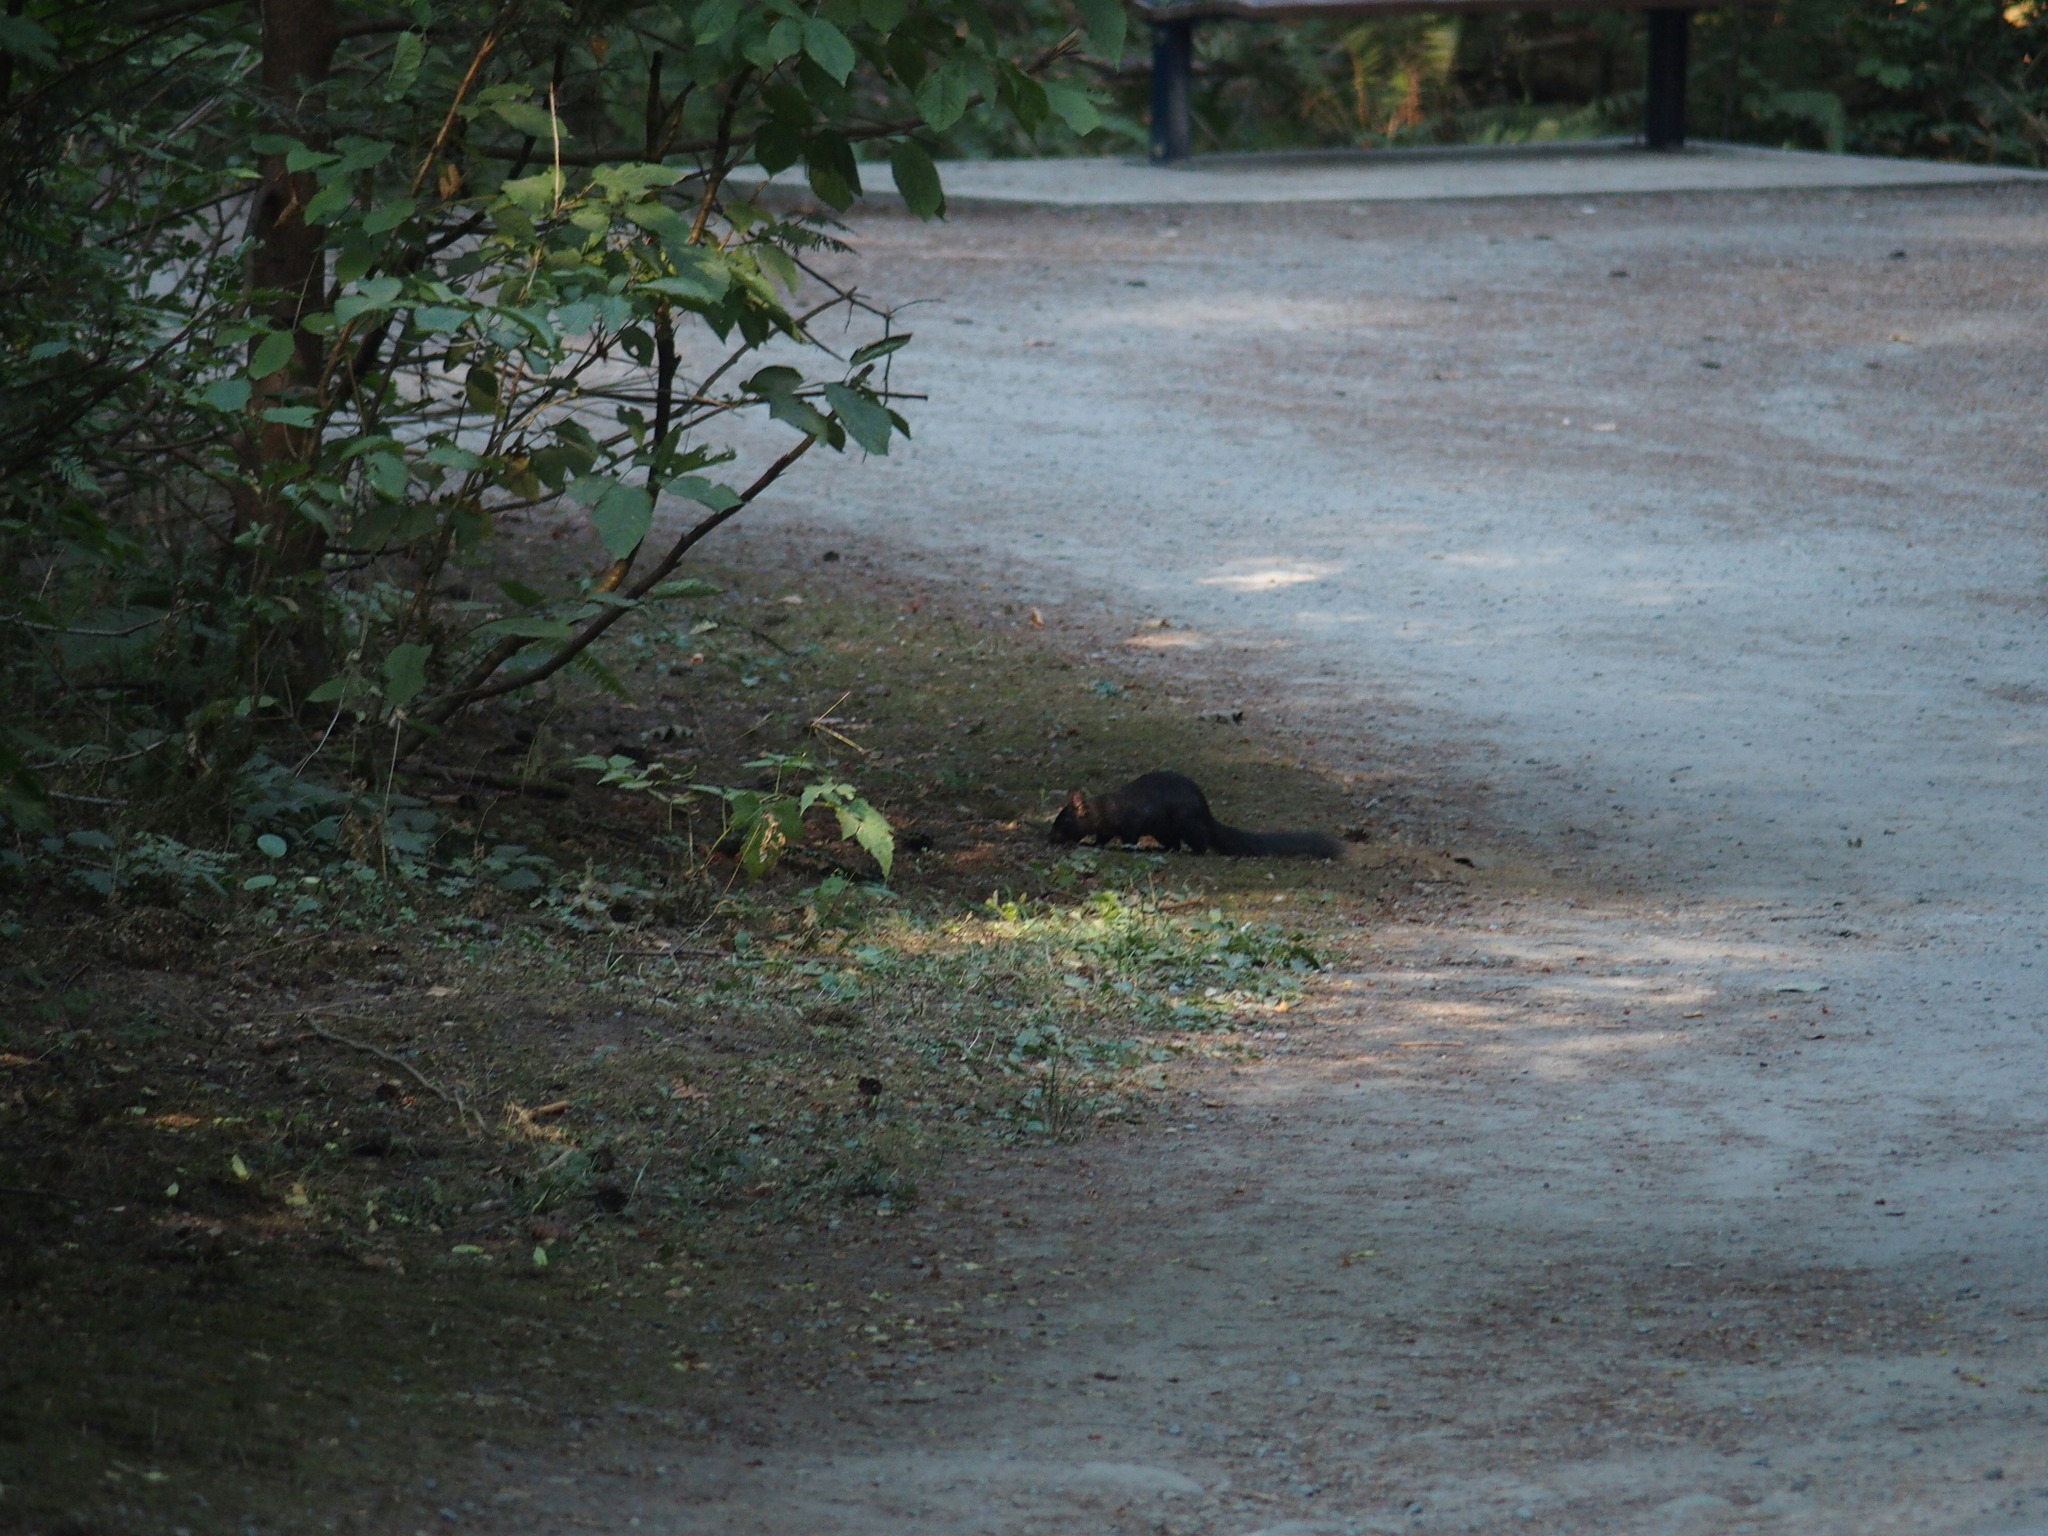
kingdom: Animalia
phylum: Chordata
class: Mammalia
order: Rodentia
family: Sciuridae
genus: Sciurus
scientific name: Sciurus carolinensis
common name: Eastern gray squirrel
